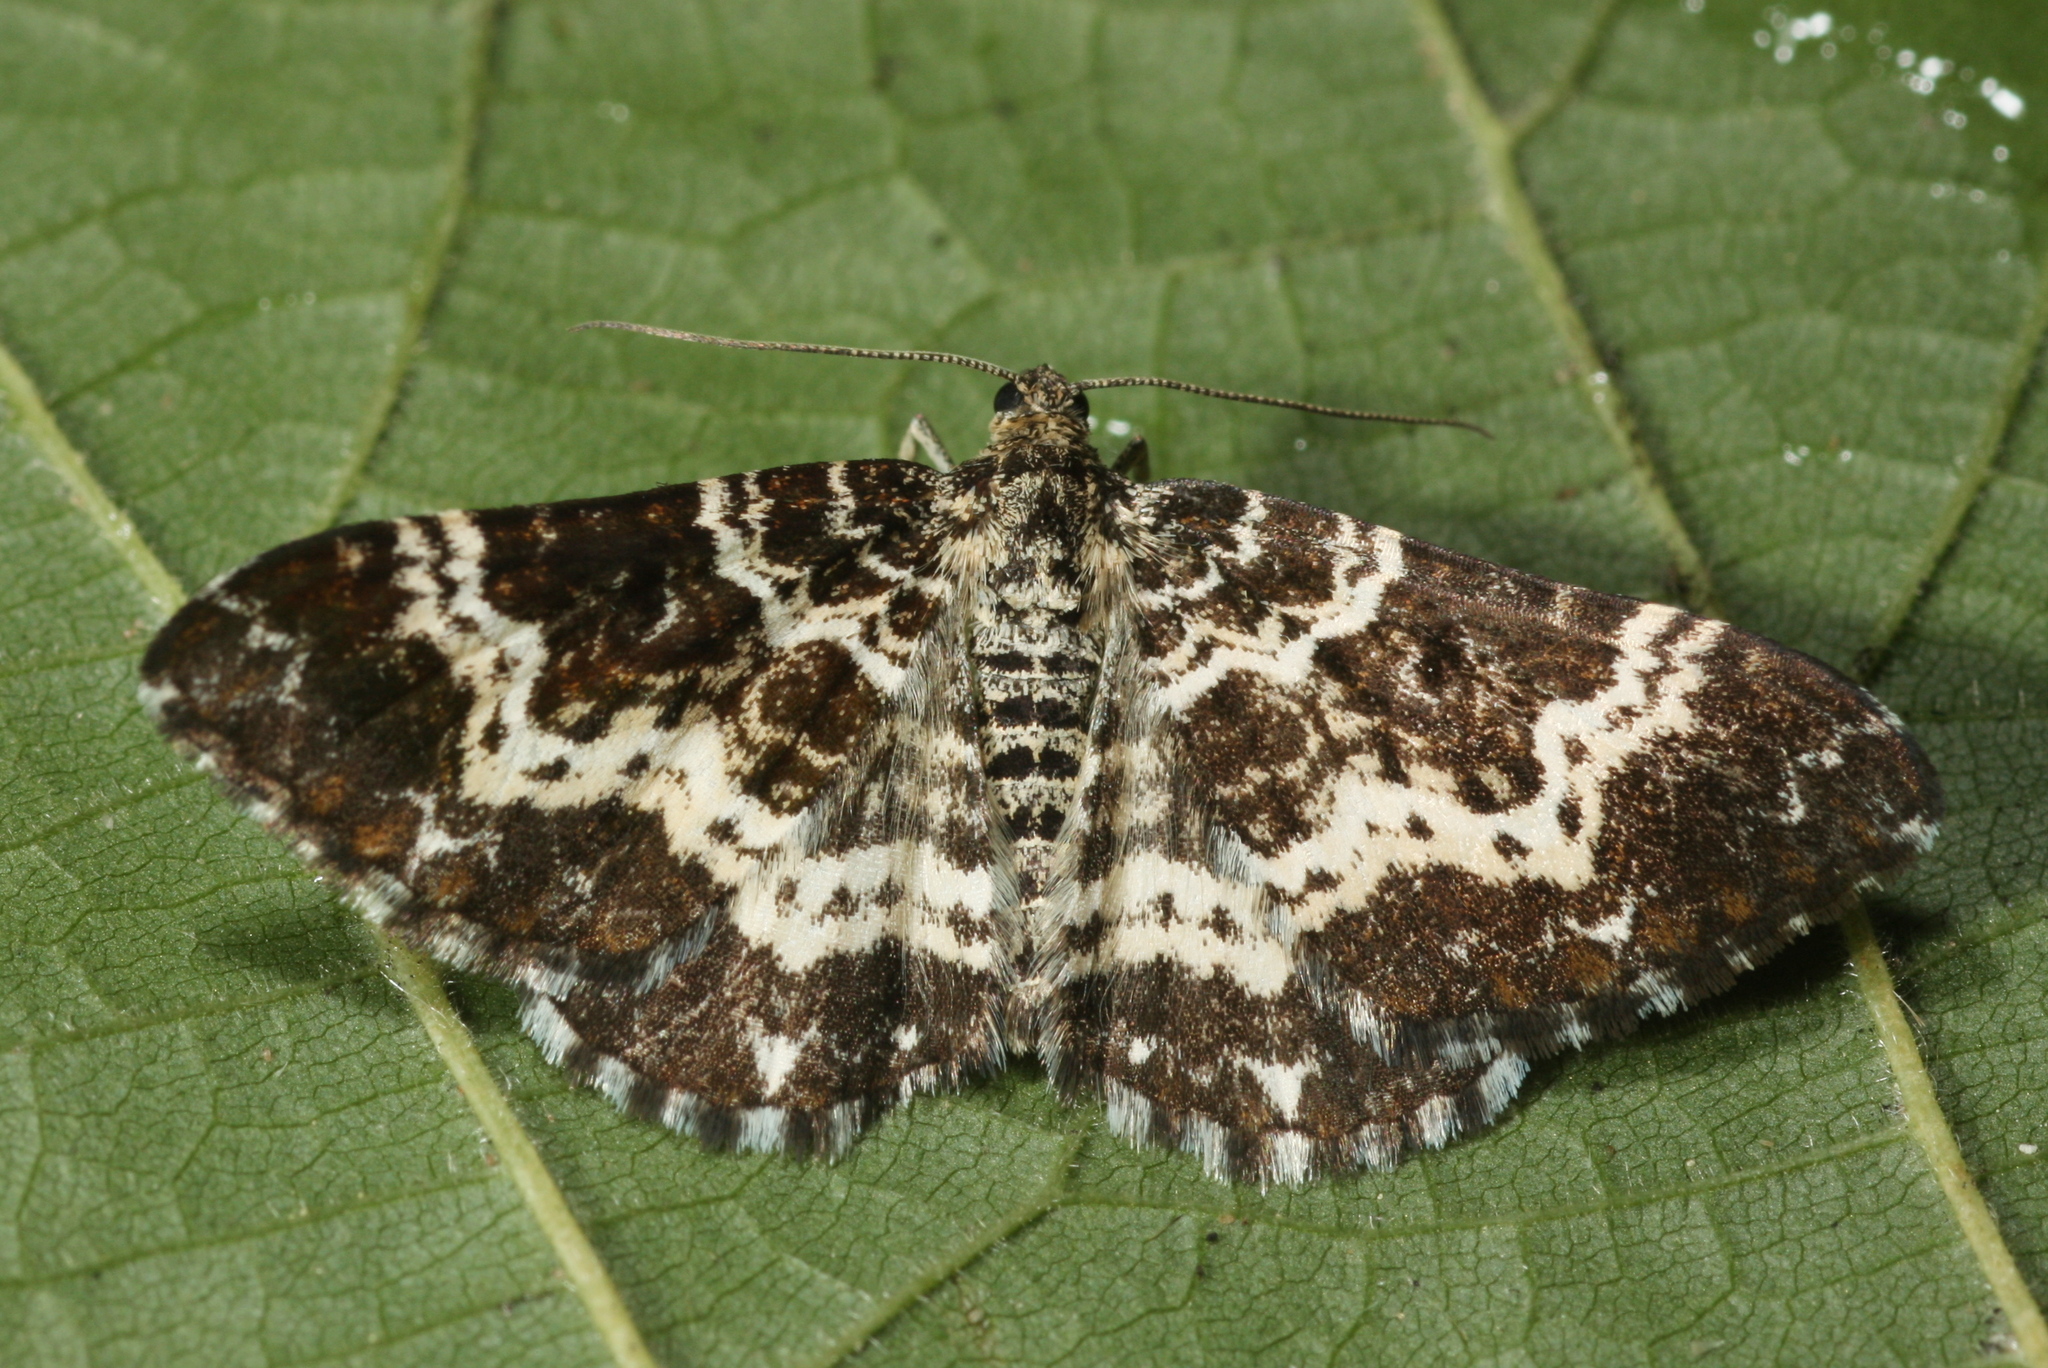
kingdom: Animalia
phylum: Arthropoda
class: Insecta
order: Lepidoptera
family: Geometridae
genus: Epirrhoe
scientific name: Epirrhoe tristata
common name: Small argent & sable
